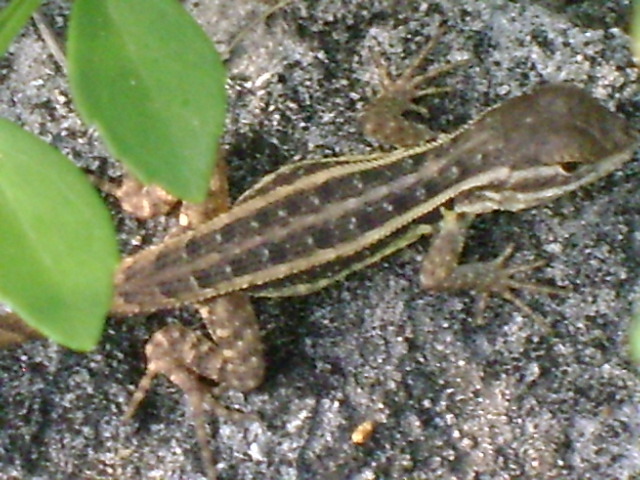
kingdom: Animalia
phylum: Chordata
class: Squamata
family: Phrynosomatidae
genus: Sceloporus
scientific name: Sceloporus variabilis
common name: Rosebelly lizard
